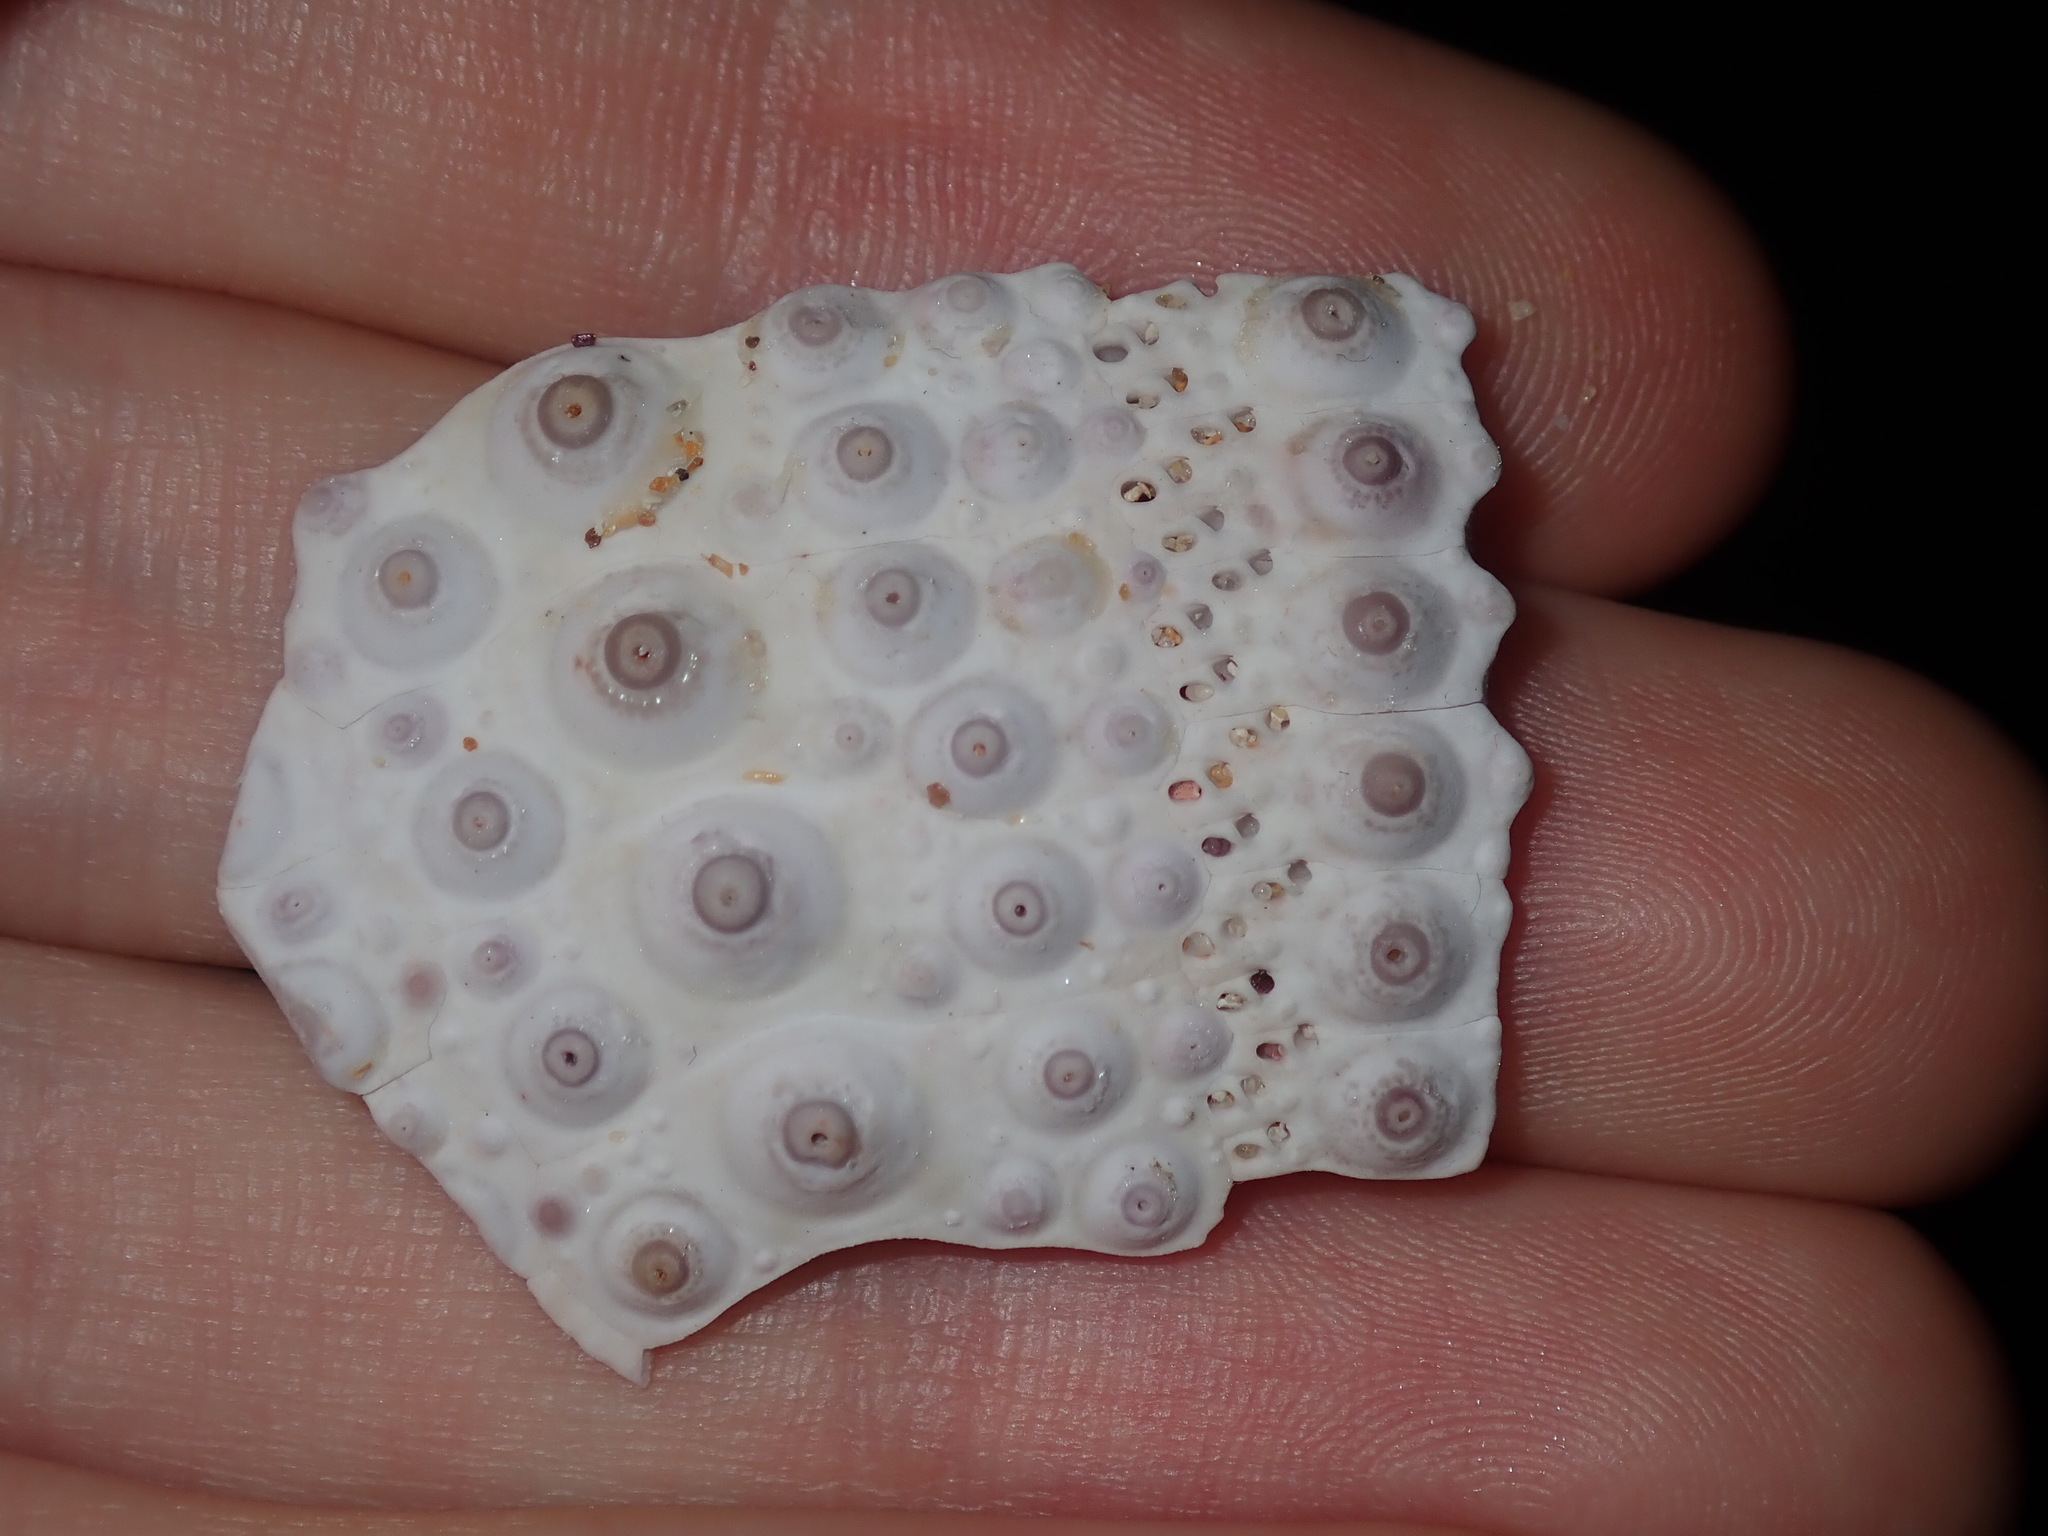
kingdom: Animalia
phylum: Echinodermata
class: Echinoidea
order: Diadematoida
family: Diadematidae
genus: Centrostephanus
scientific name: Centrostephanus rodgersii
